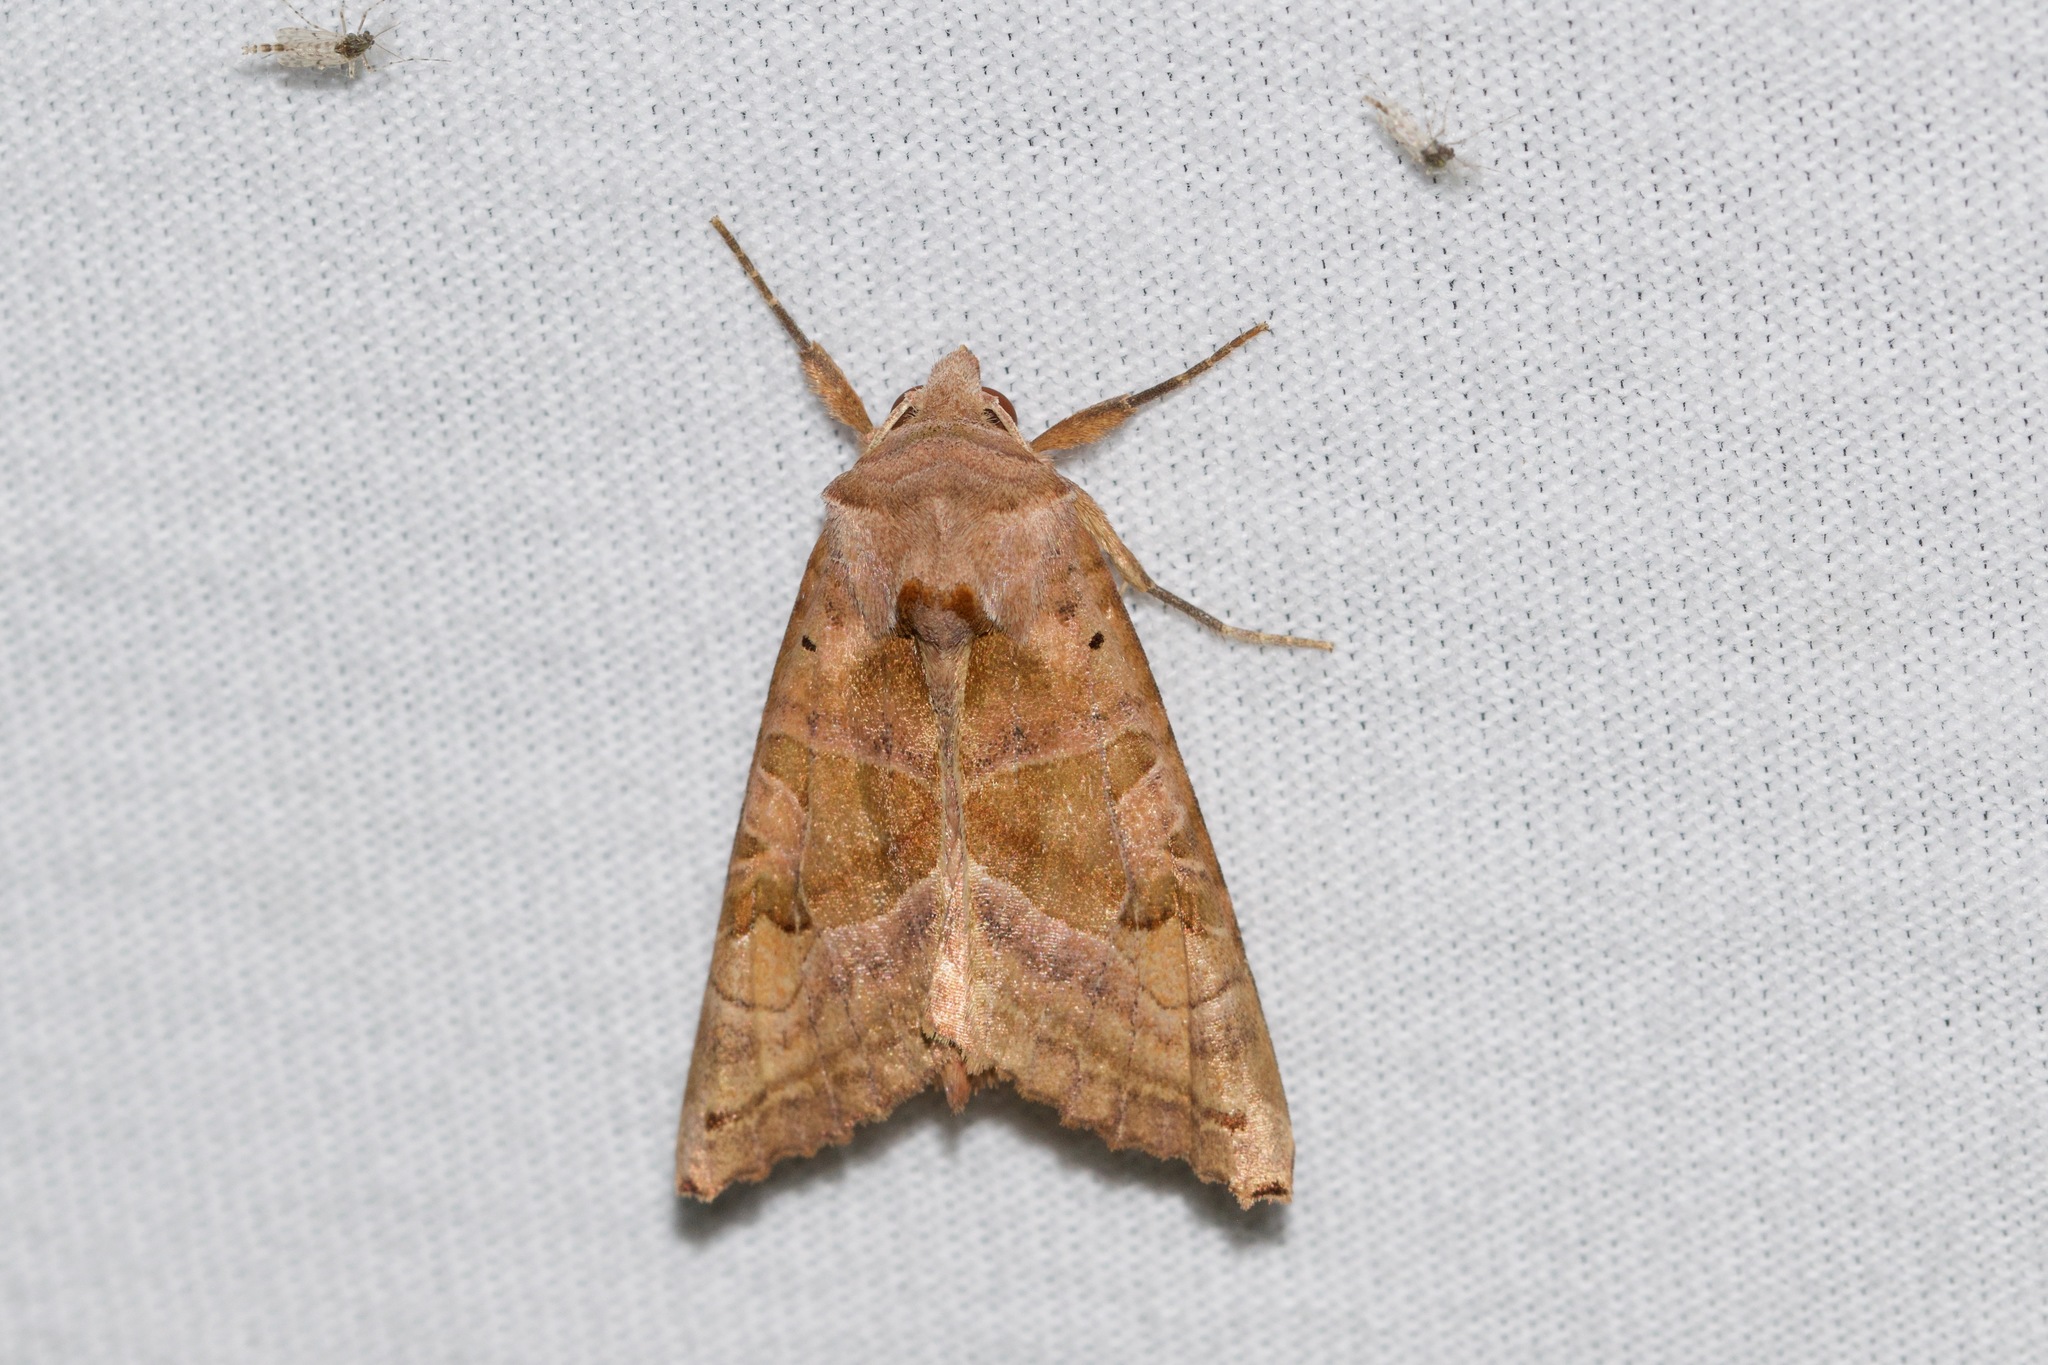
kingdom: Animalia
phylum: Arthropoda
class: Insecta
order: Lepidoptera
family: Noctuidae
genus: Phlogophora
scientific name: Phlogophora periculosa
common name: Brown angle shades
